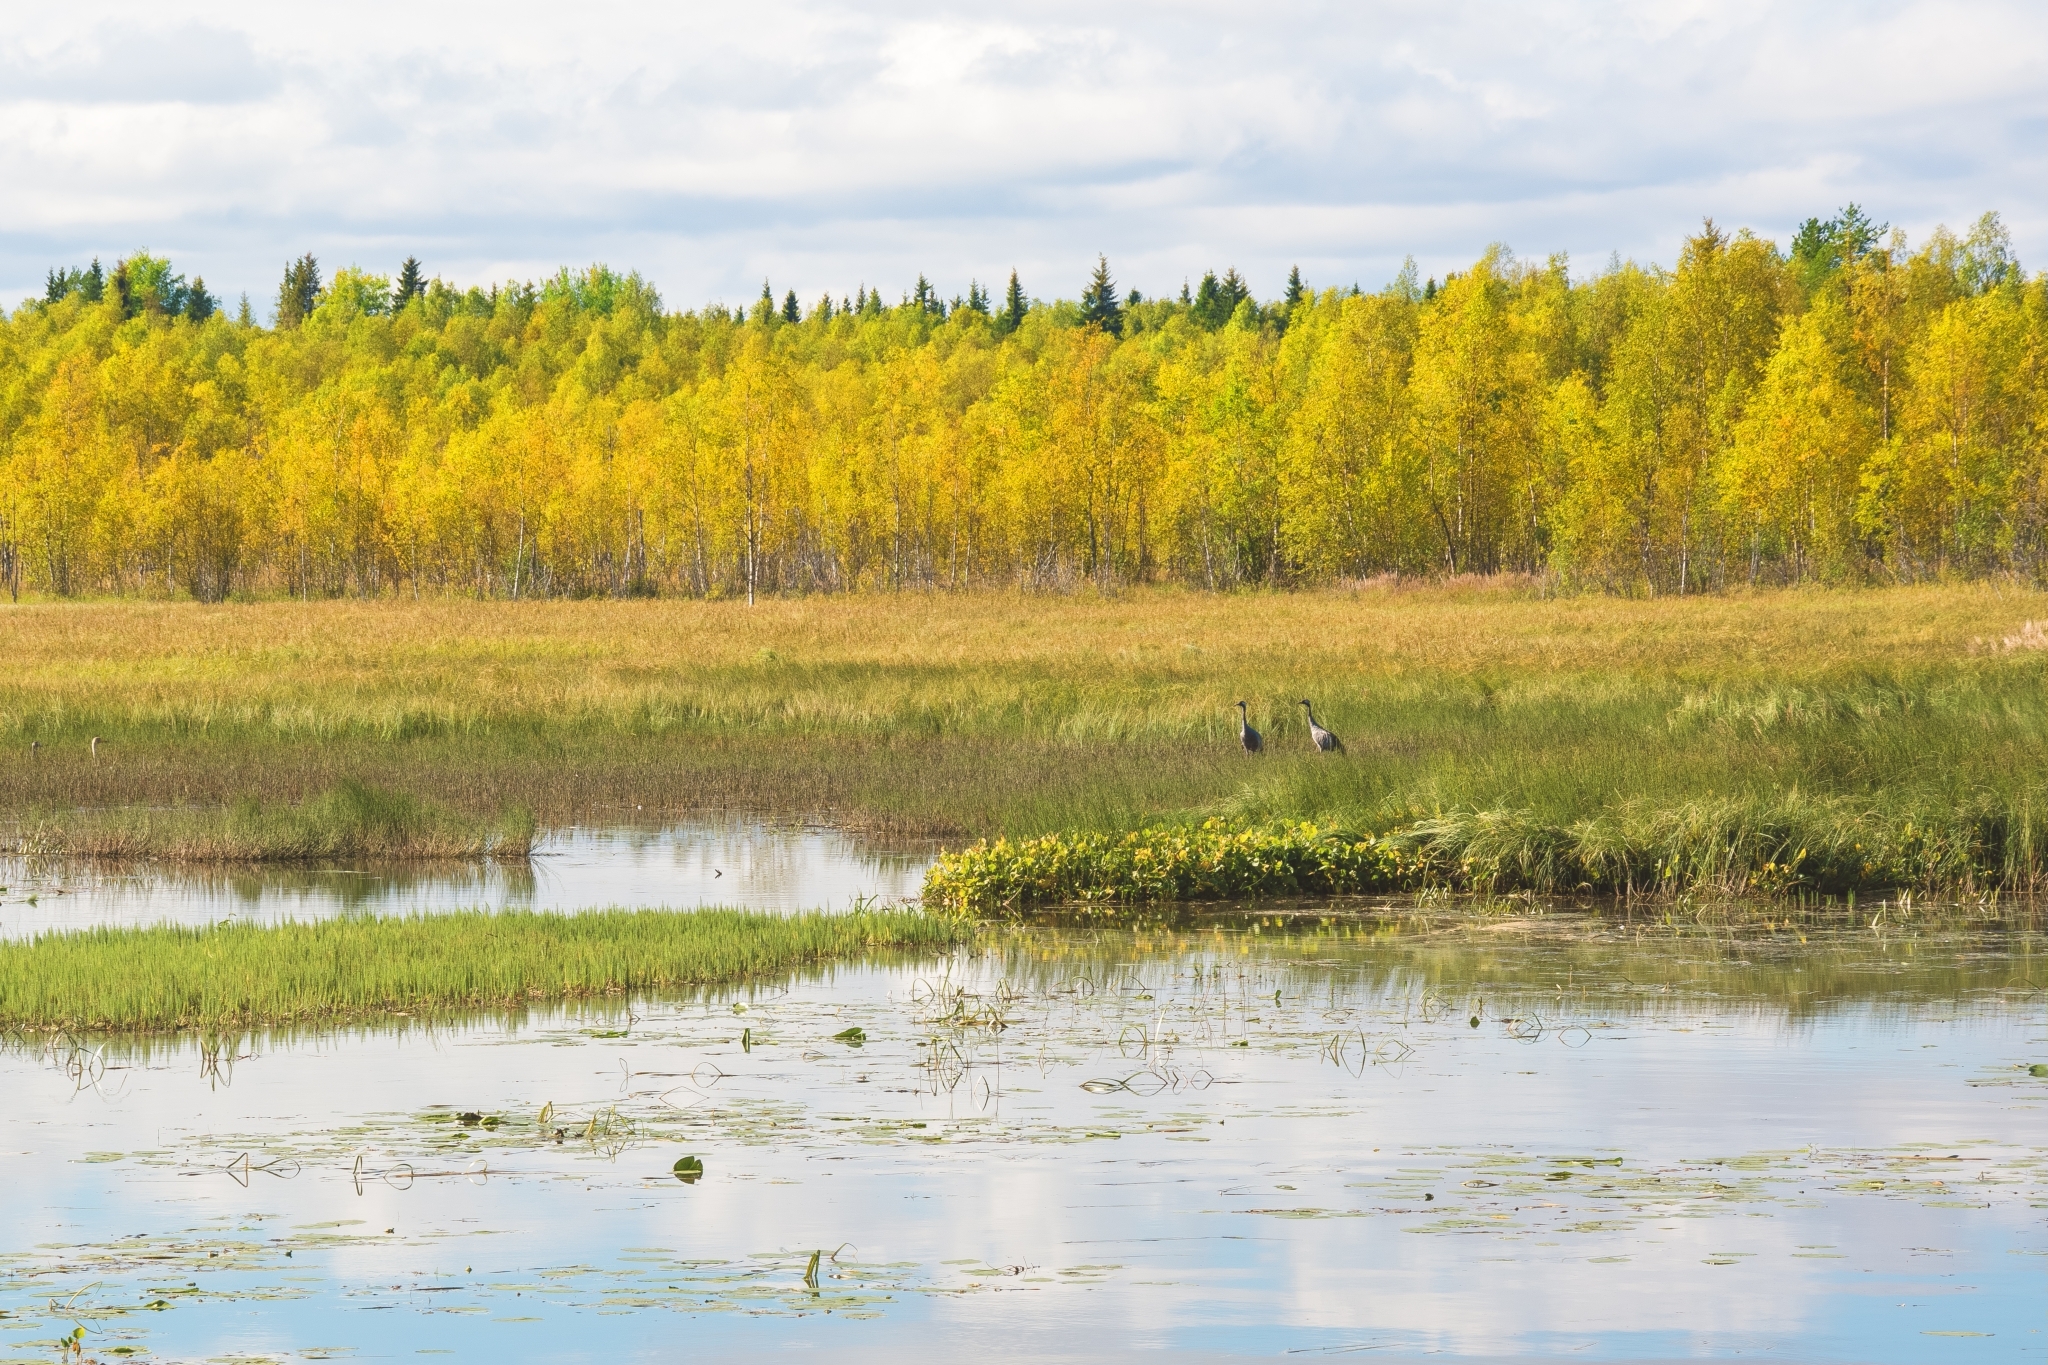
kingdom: Animalia
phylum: Chordata
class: Aves
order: Gruiformes
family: Gruidae
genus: Grus
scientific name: Grus grus
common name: Common crane
